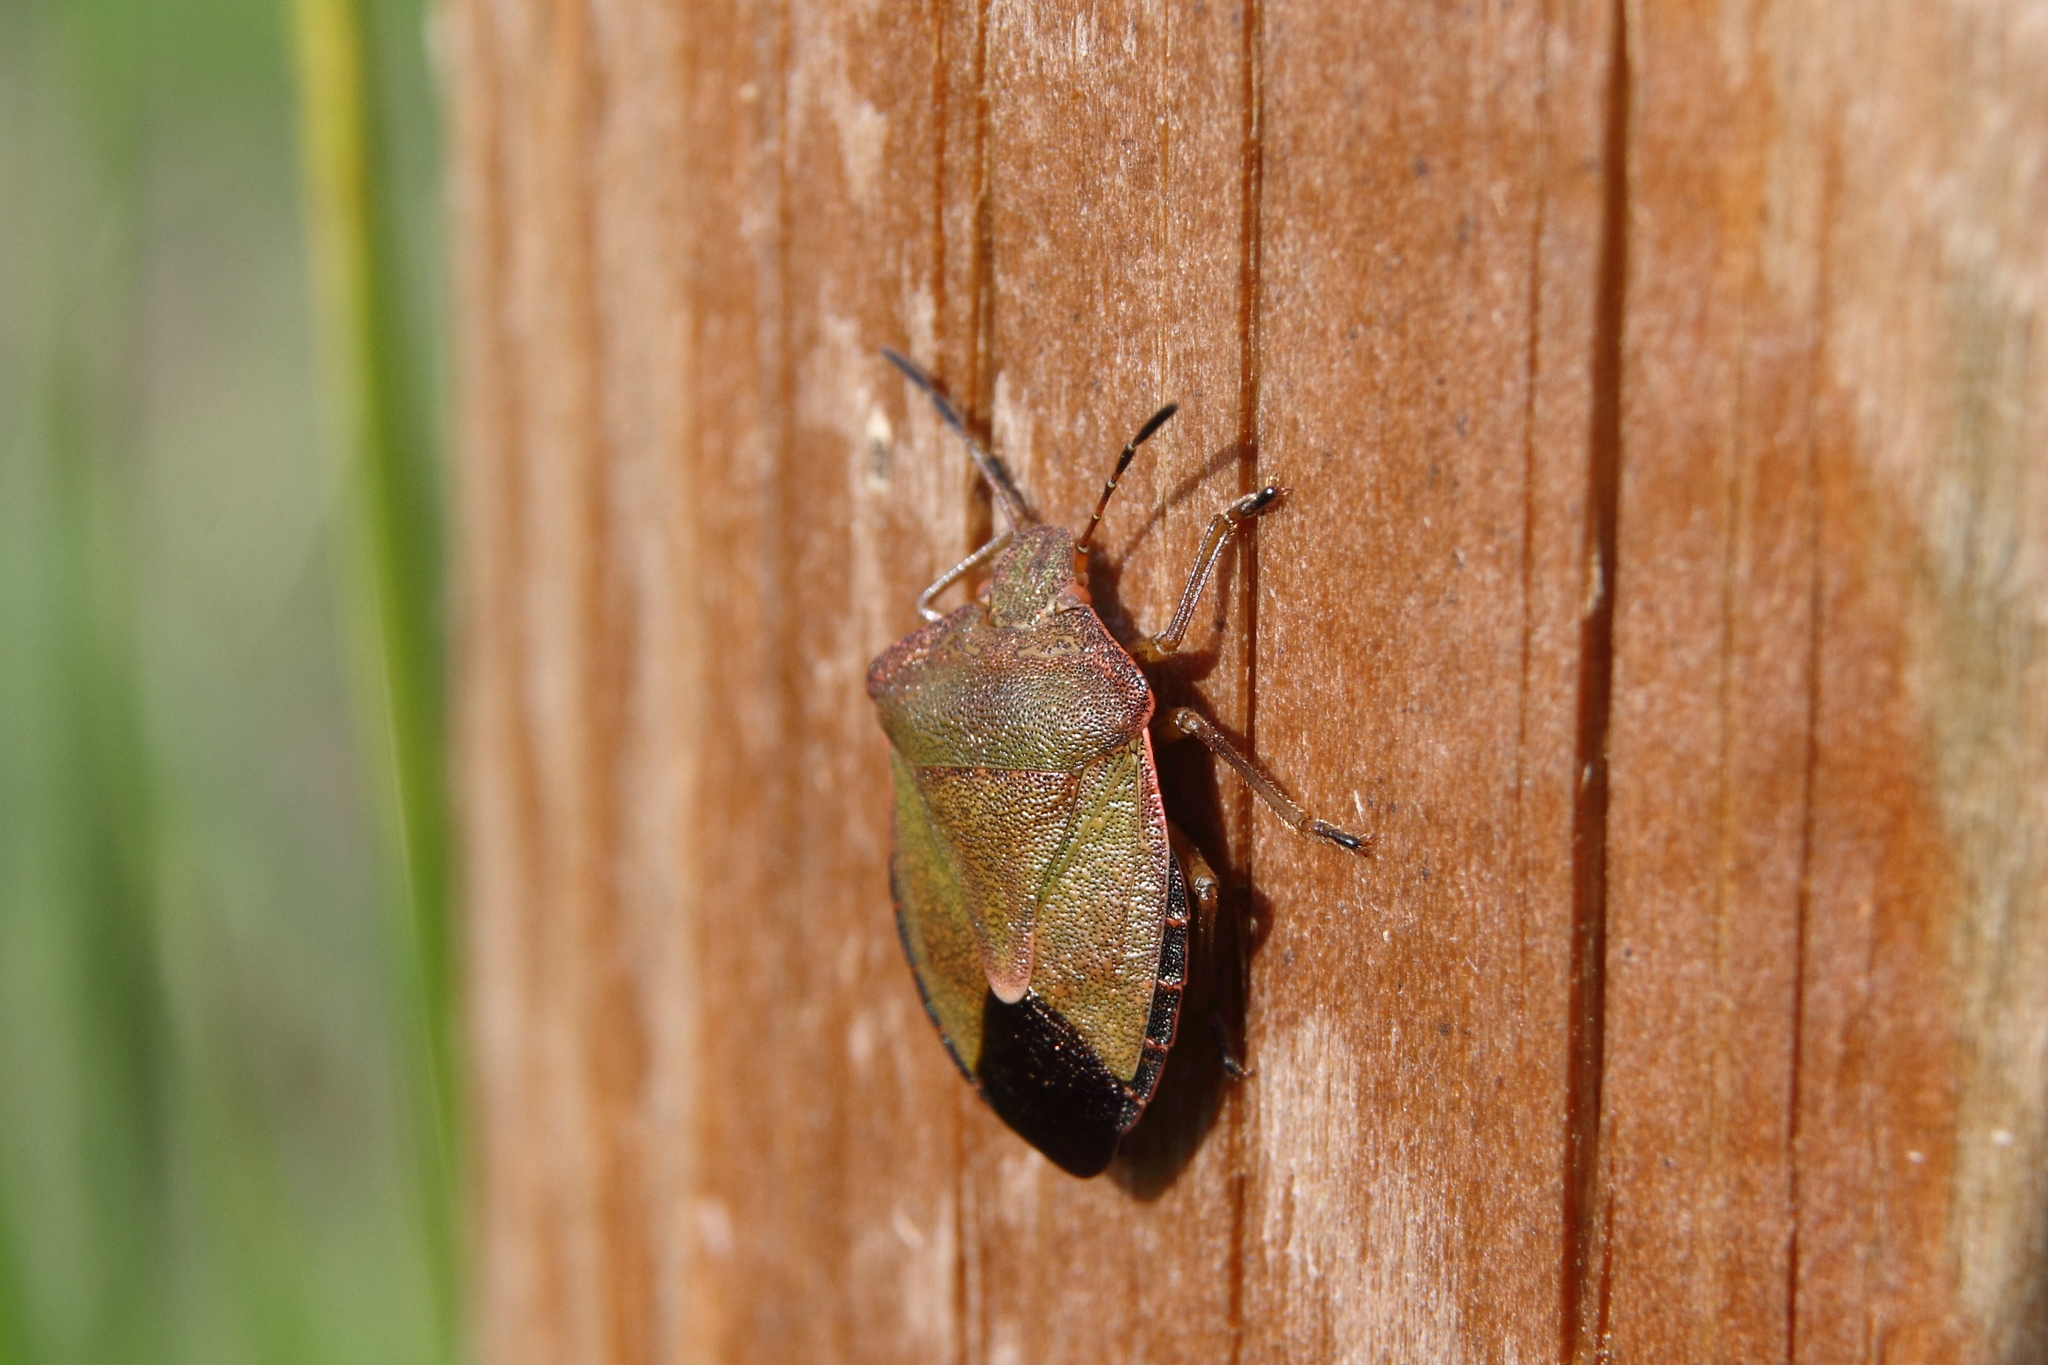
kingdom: Animalia
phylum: Arthropoda
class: Insecta
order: Hemiptera
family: Pentatomidae
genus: Palomena
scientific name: Palomena prasina
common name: Green shieldbug
